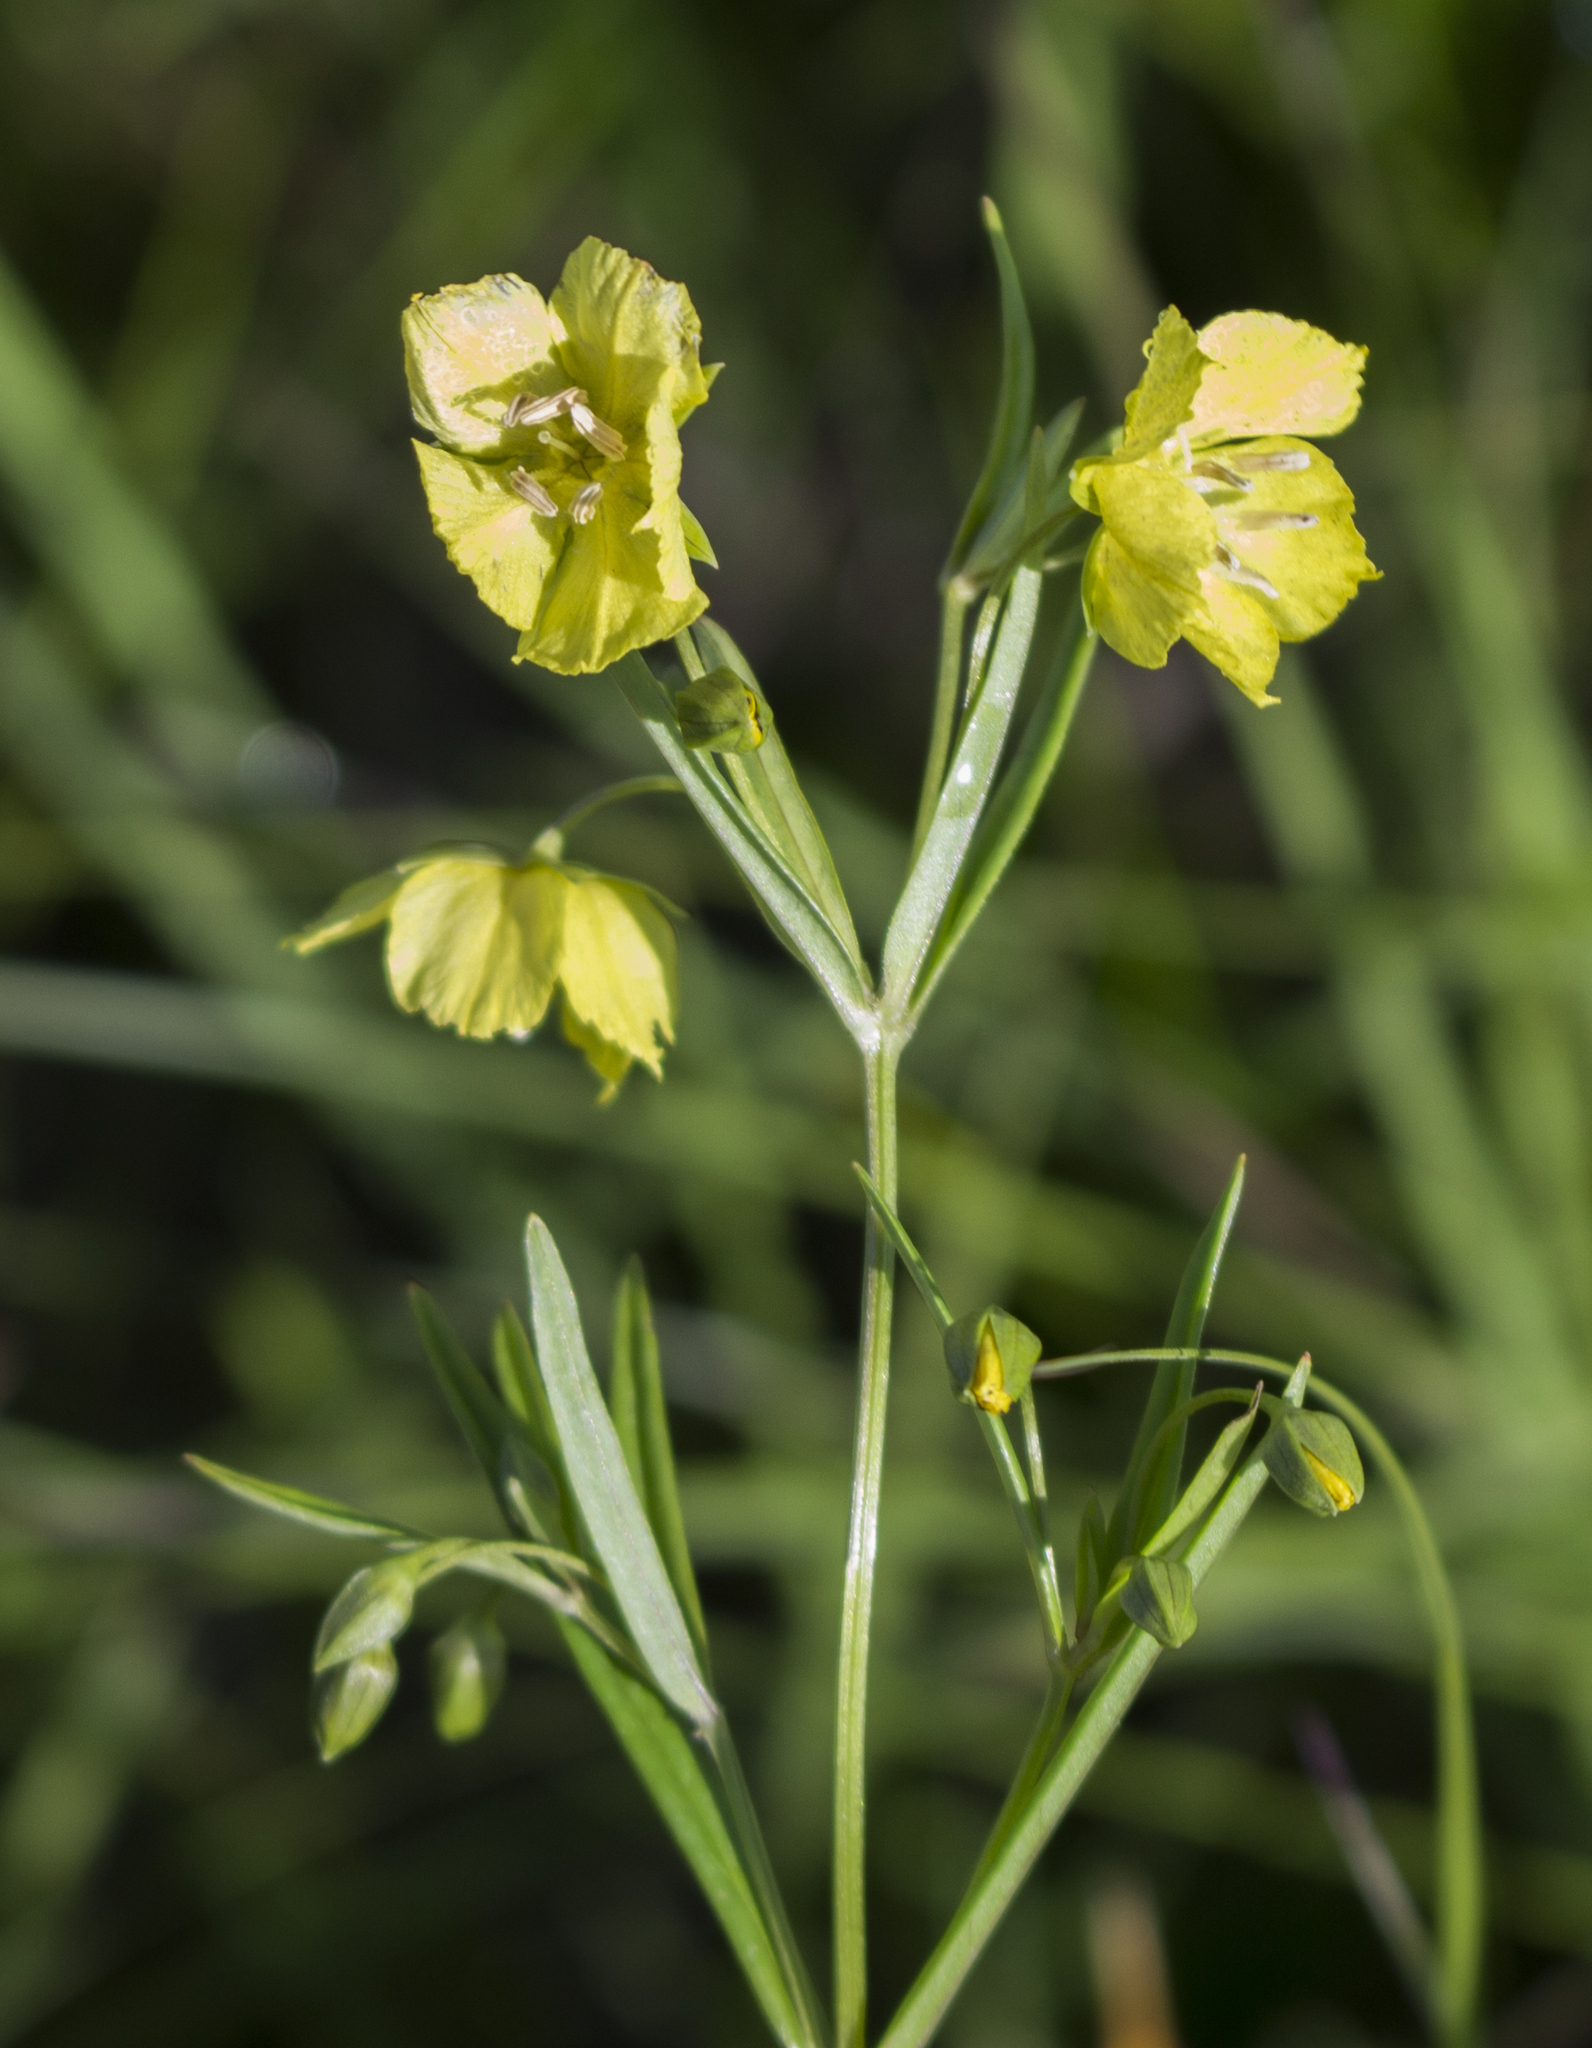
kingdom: Plantae
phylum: Tracheophyta
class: Magnoliopsida
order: Ericales
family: Primulaceae
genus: Lysimachia
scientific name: Lysimachia quadriflora
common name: Four-flowered loosestrife
